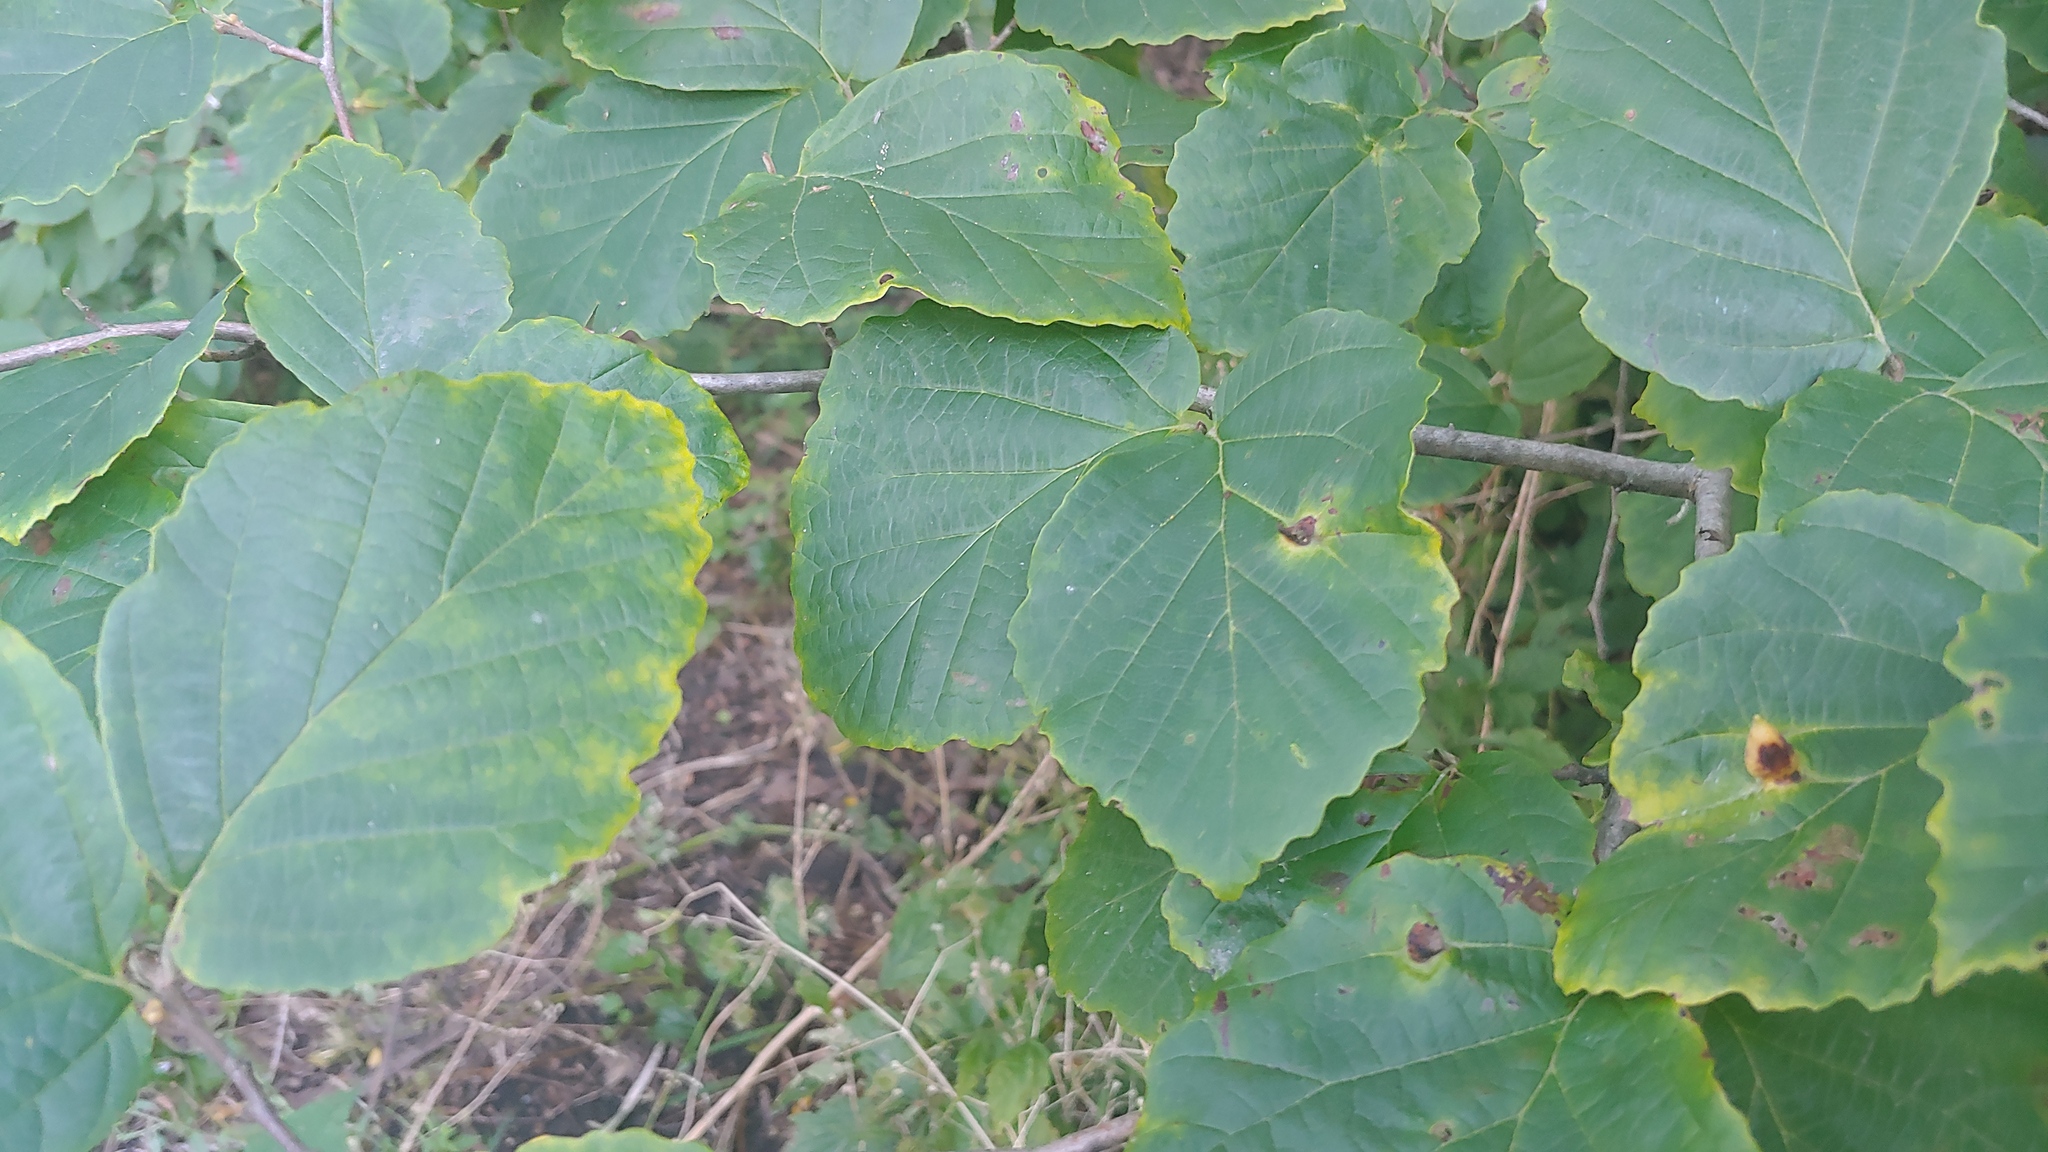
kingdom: Plantae
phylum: Tracheophyta
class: Magnoliopsida
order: Saxifragales
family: Hamamelidaceae
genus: Hamamelis
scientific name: Hamamelis virginiana
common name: Witch-hazel
